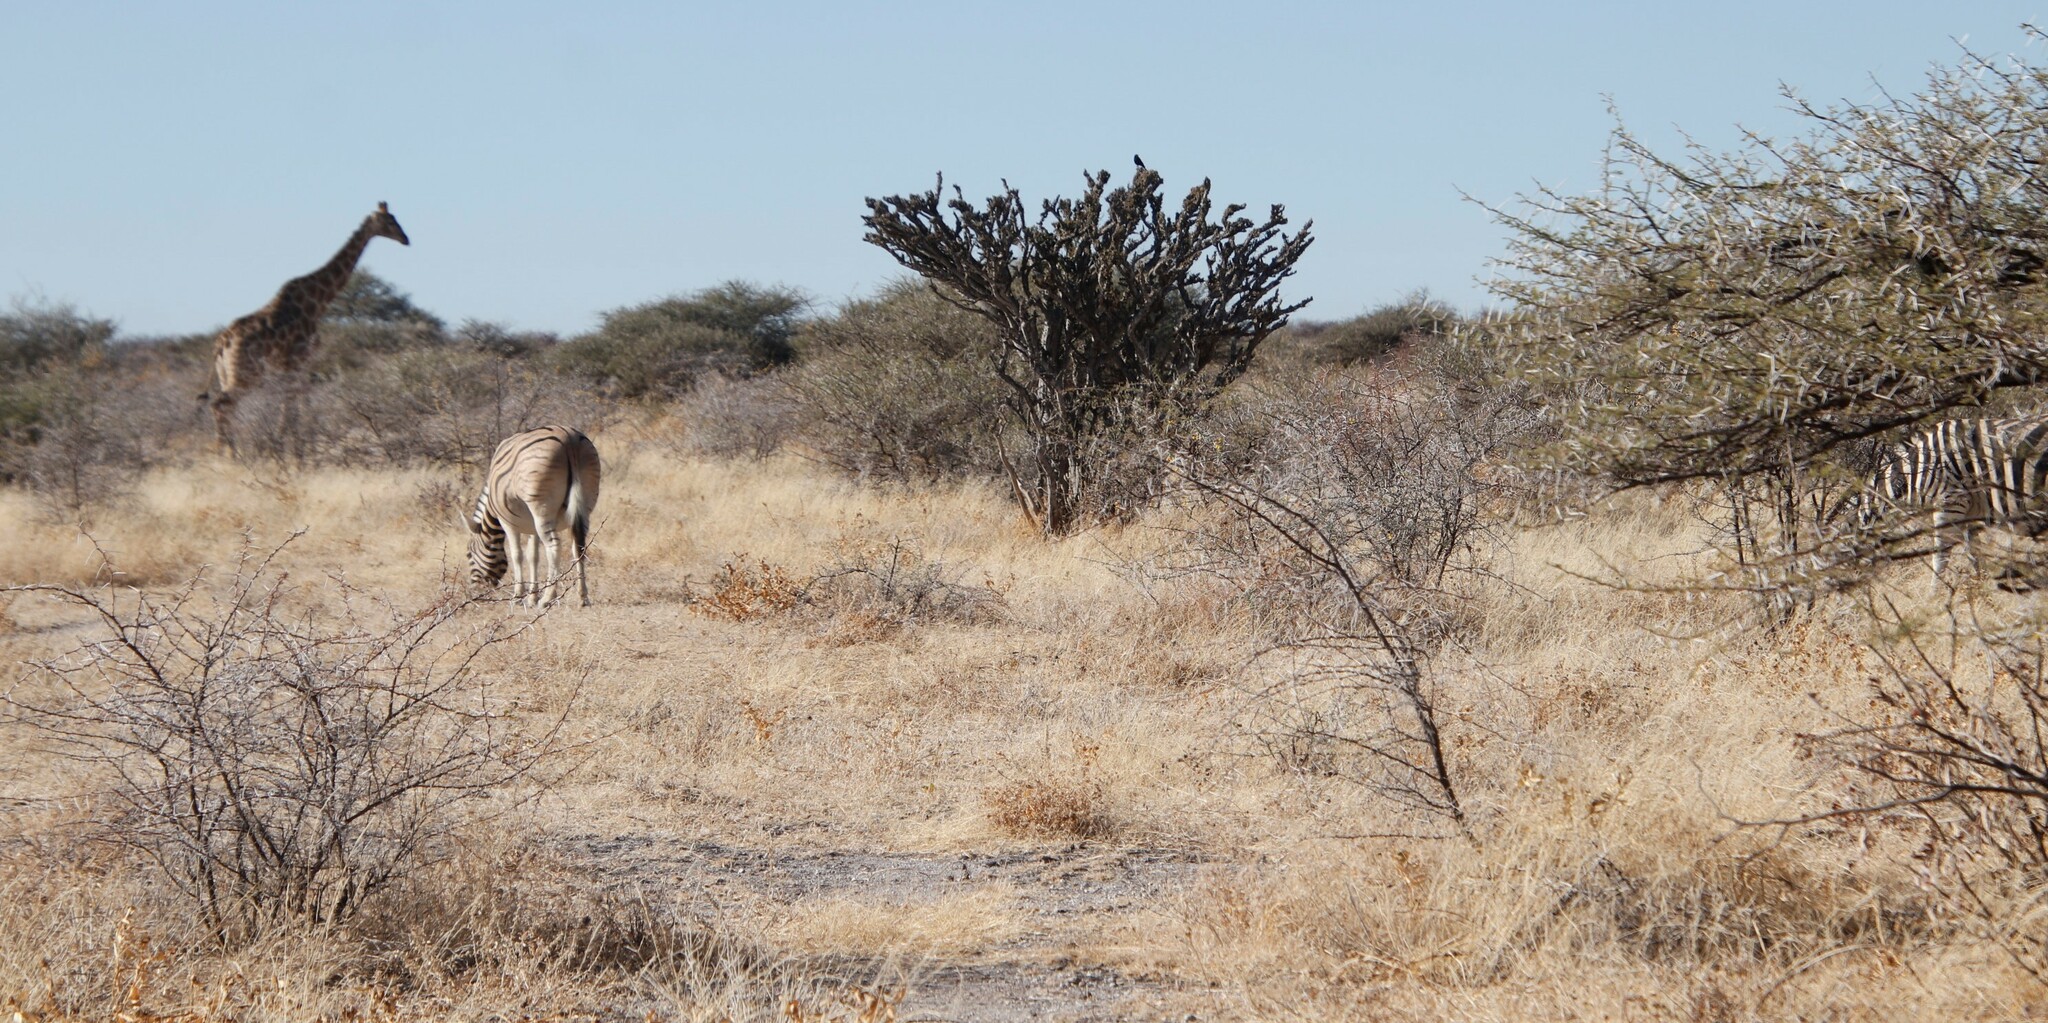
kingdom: Plantae
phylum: Tracheophyta
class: Magnoliopsida
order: Brassicales
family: Capparaceae
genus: Boscia
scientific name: Boscia foetida
